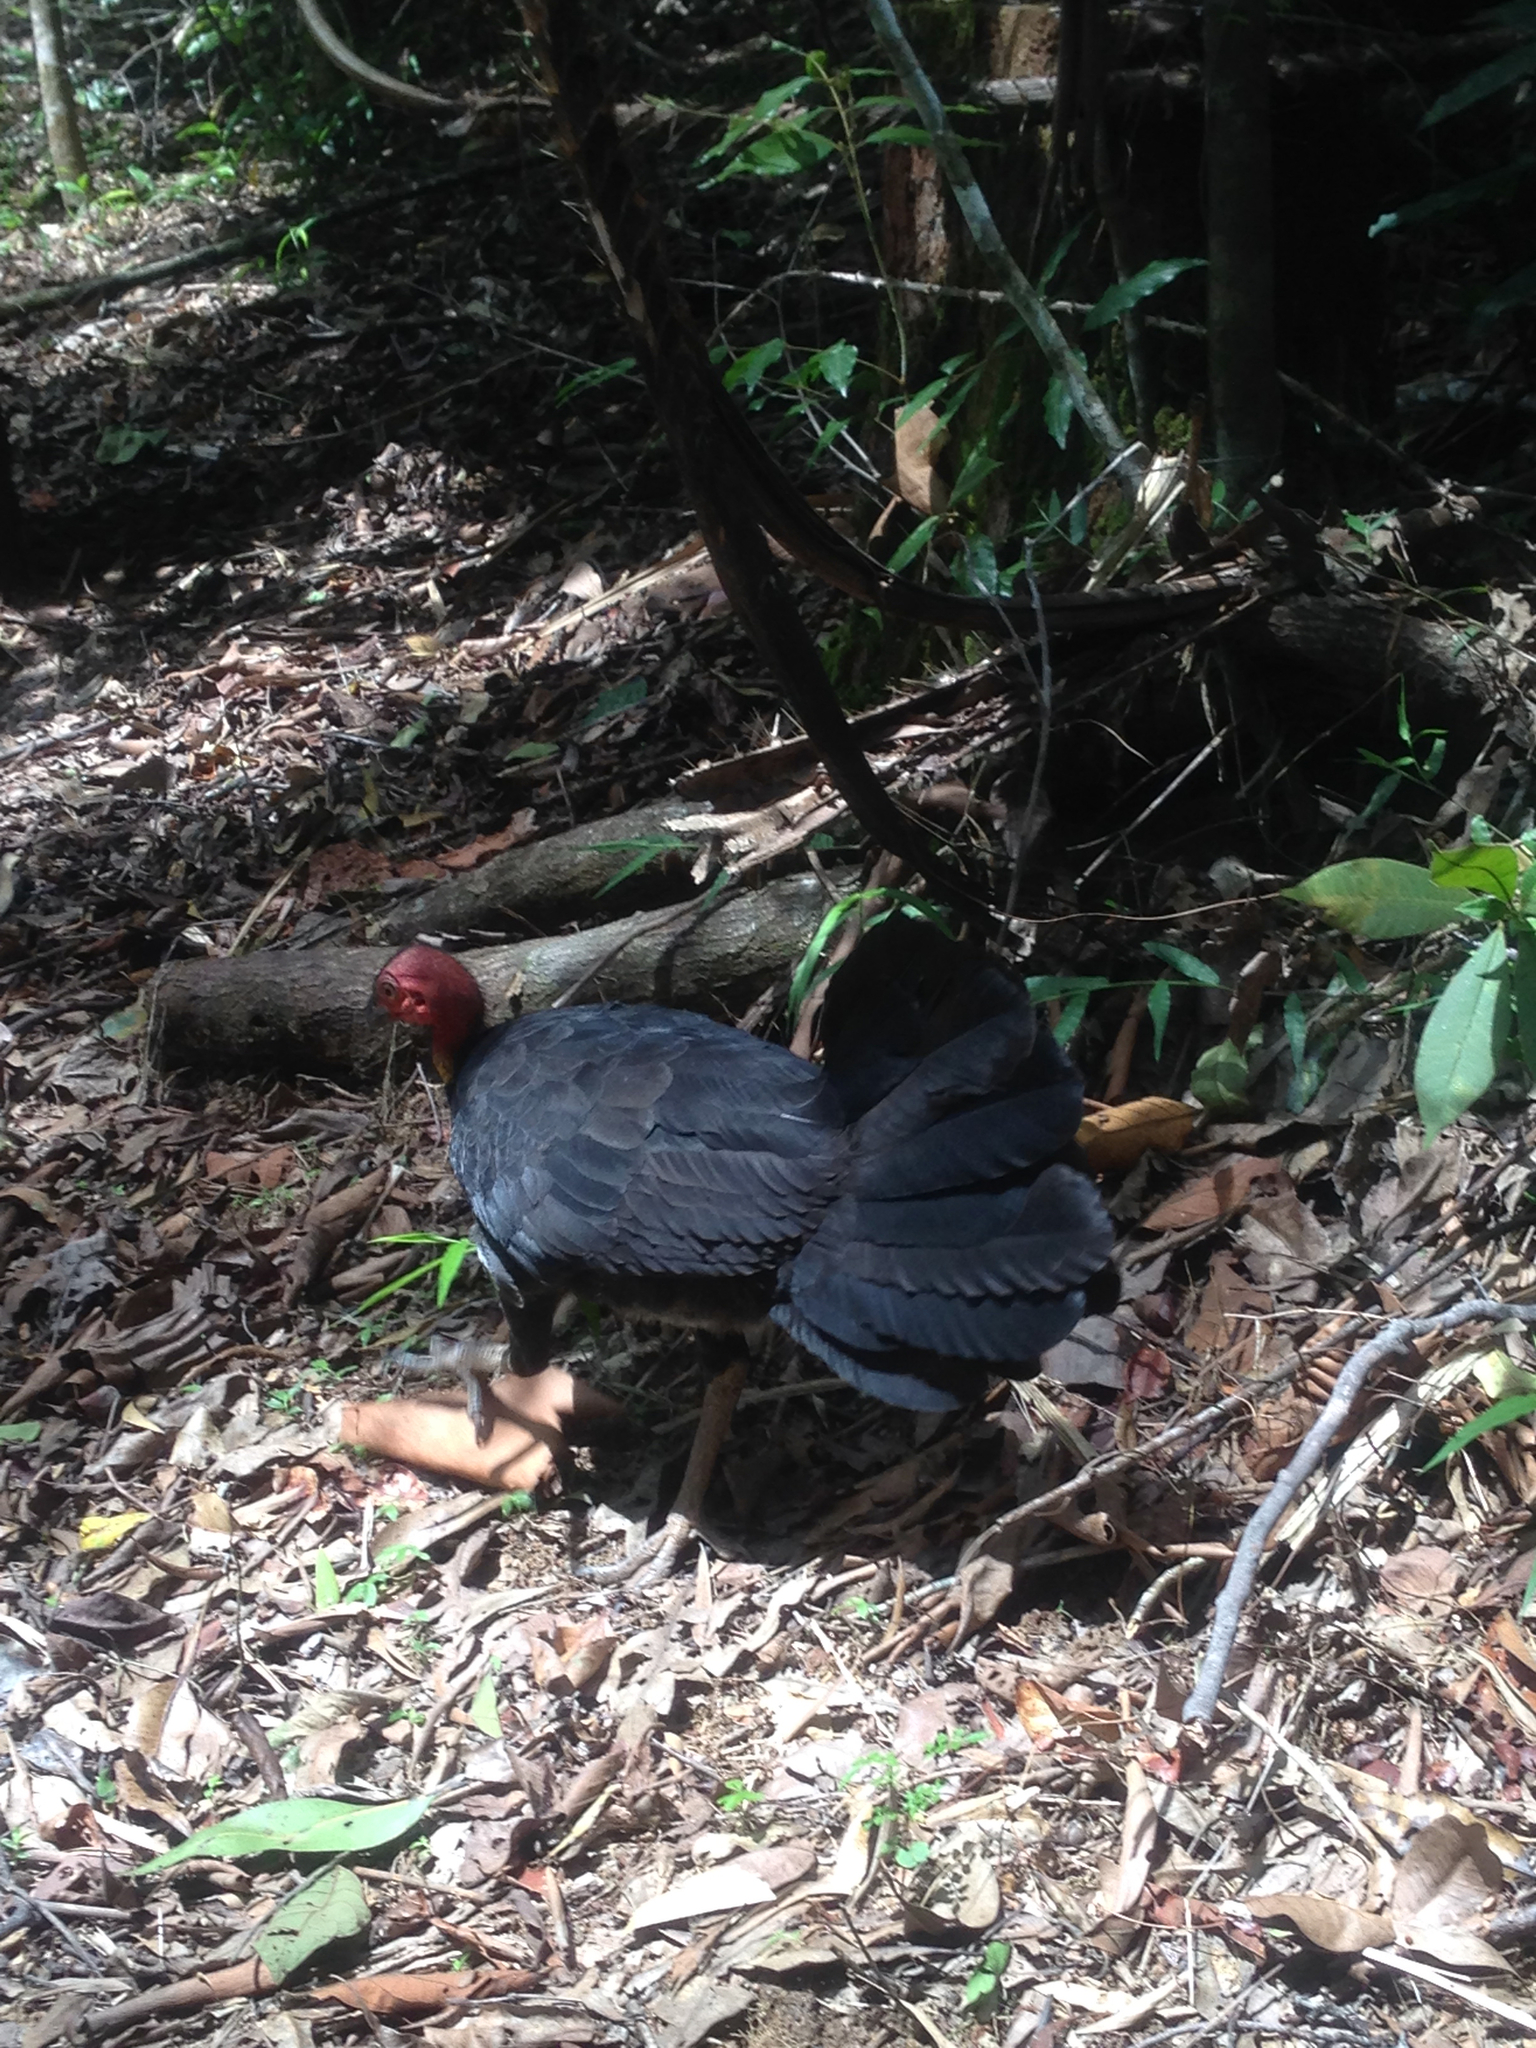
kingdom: Animalia
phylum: Chordata
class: Aves
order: Galliformes
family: Megapodiidae
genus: Alectura
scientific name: Alectura lathami
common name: Australian brushturkey
